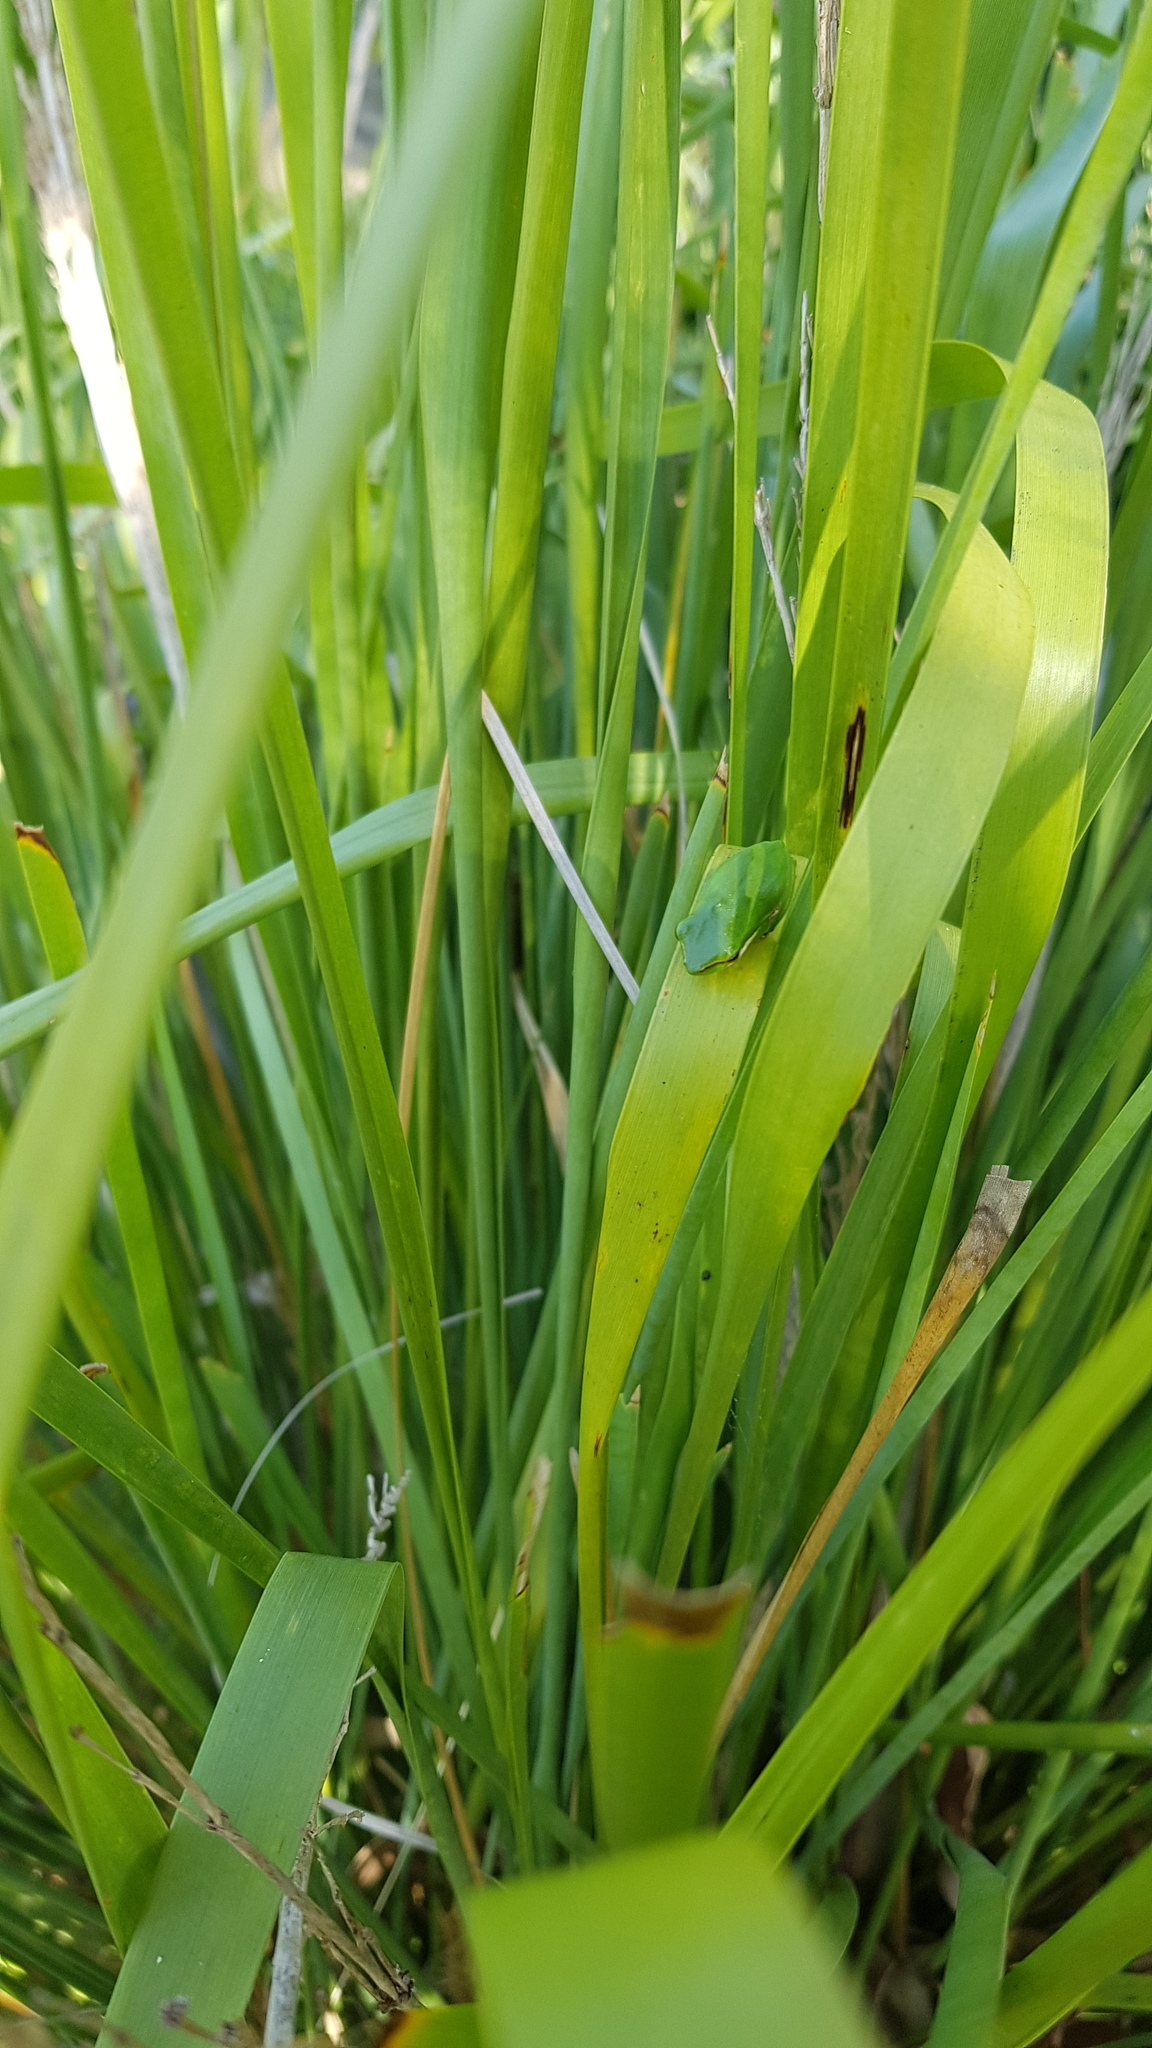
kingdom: Animalia
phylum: Chordata
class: Amphibia
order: Anura
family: Pelodryadidae
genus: Litoria
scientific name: Litoria fallax
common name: Eastern dwarf treefrog
